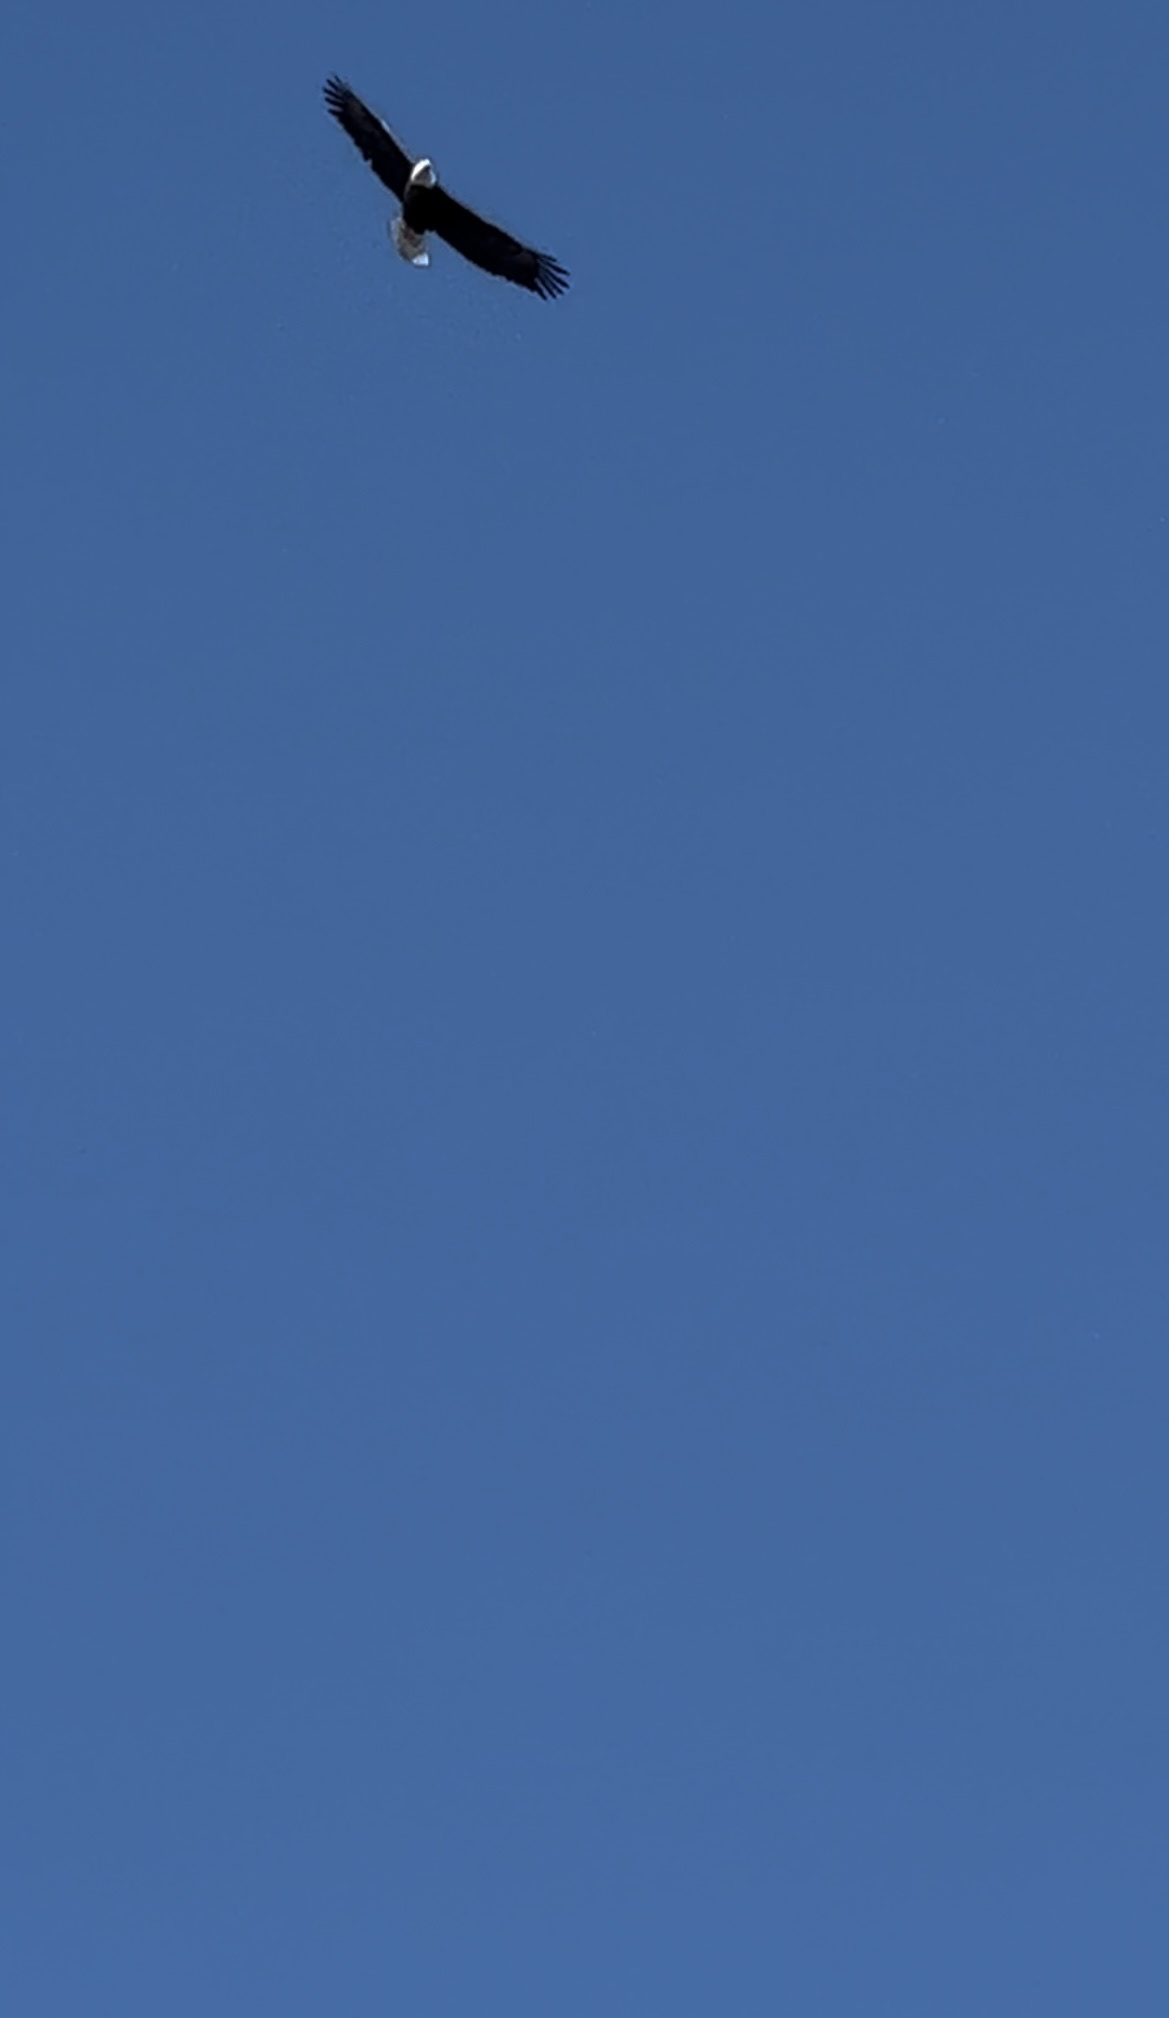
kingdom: Animalia
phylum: Chordata
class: Aves
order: Accipitriformes
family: Accipitridae
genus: Haliaeetus
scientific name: Haliaeetus leucocephalus
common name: Bald eagle
